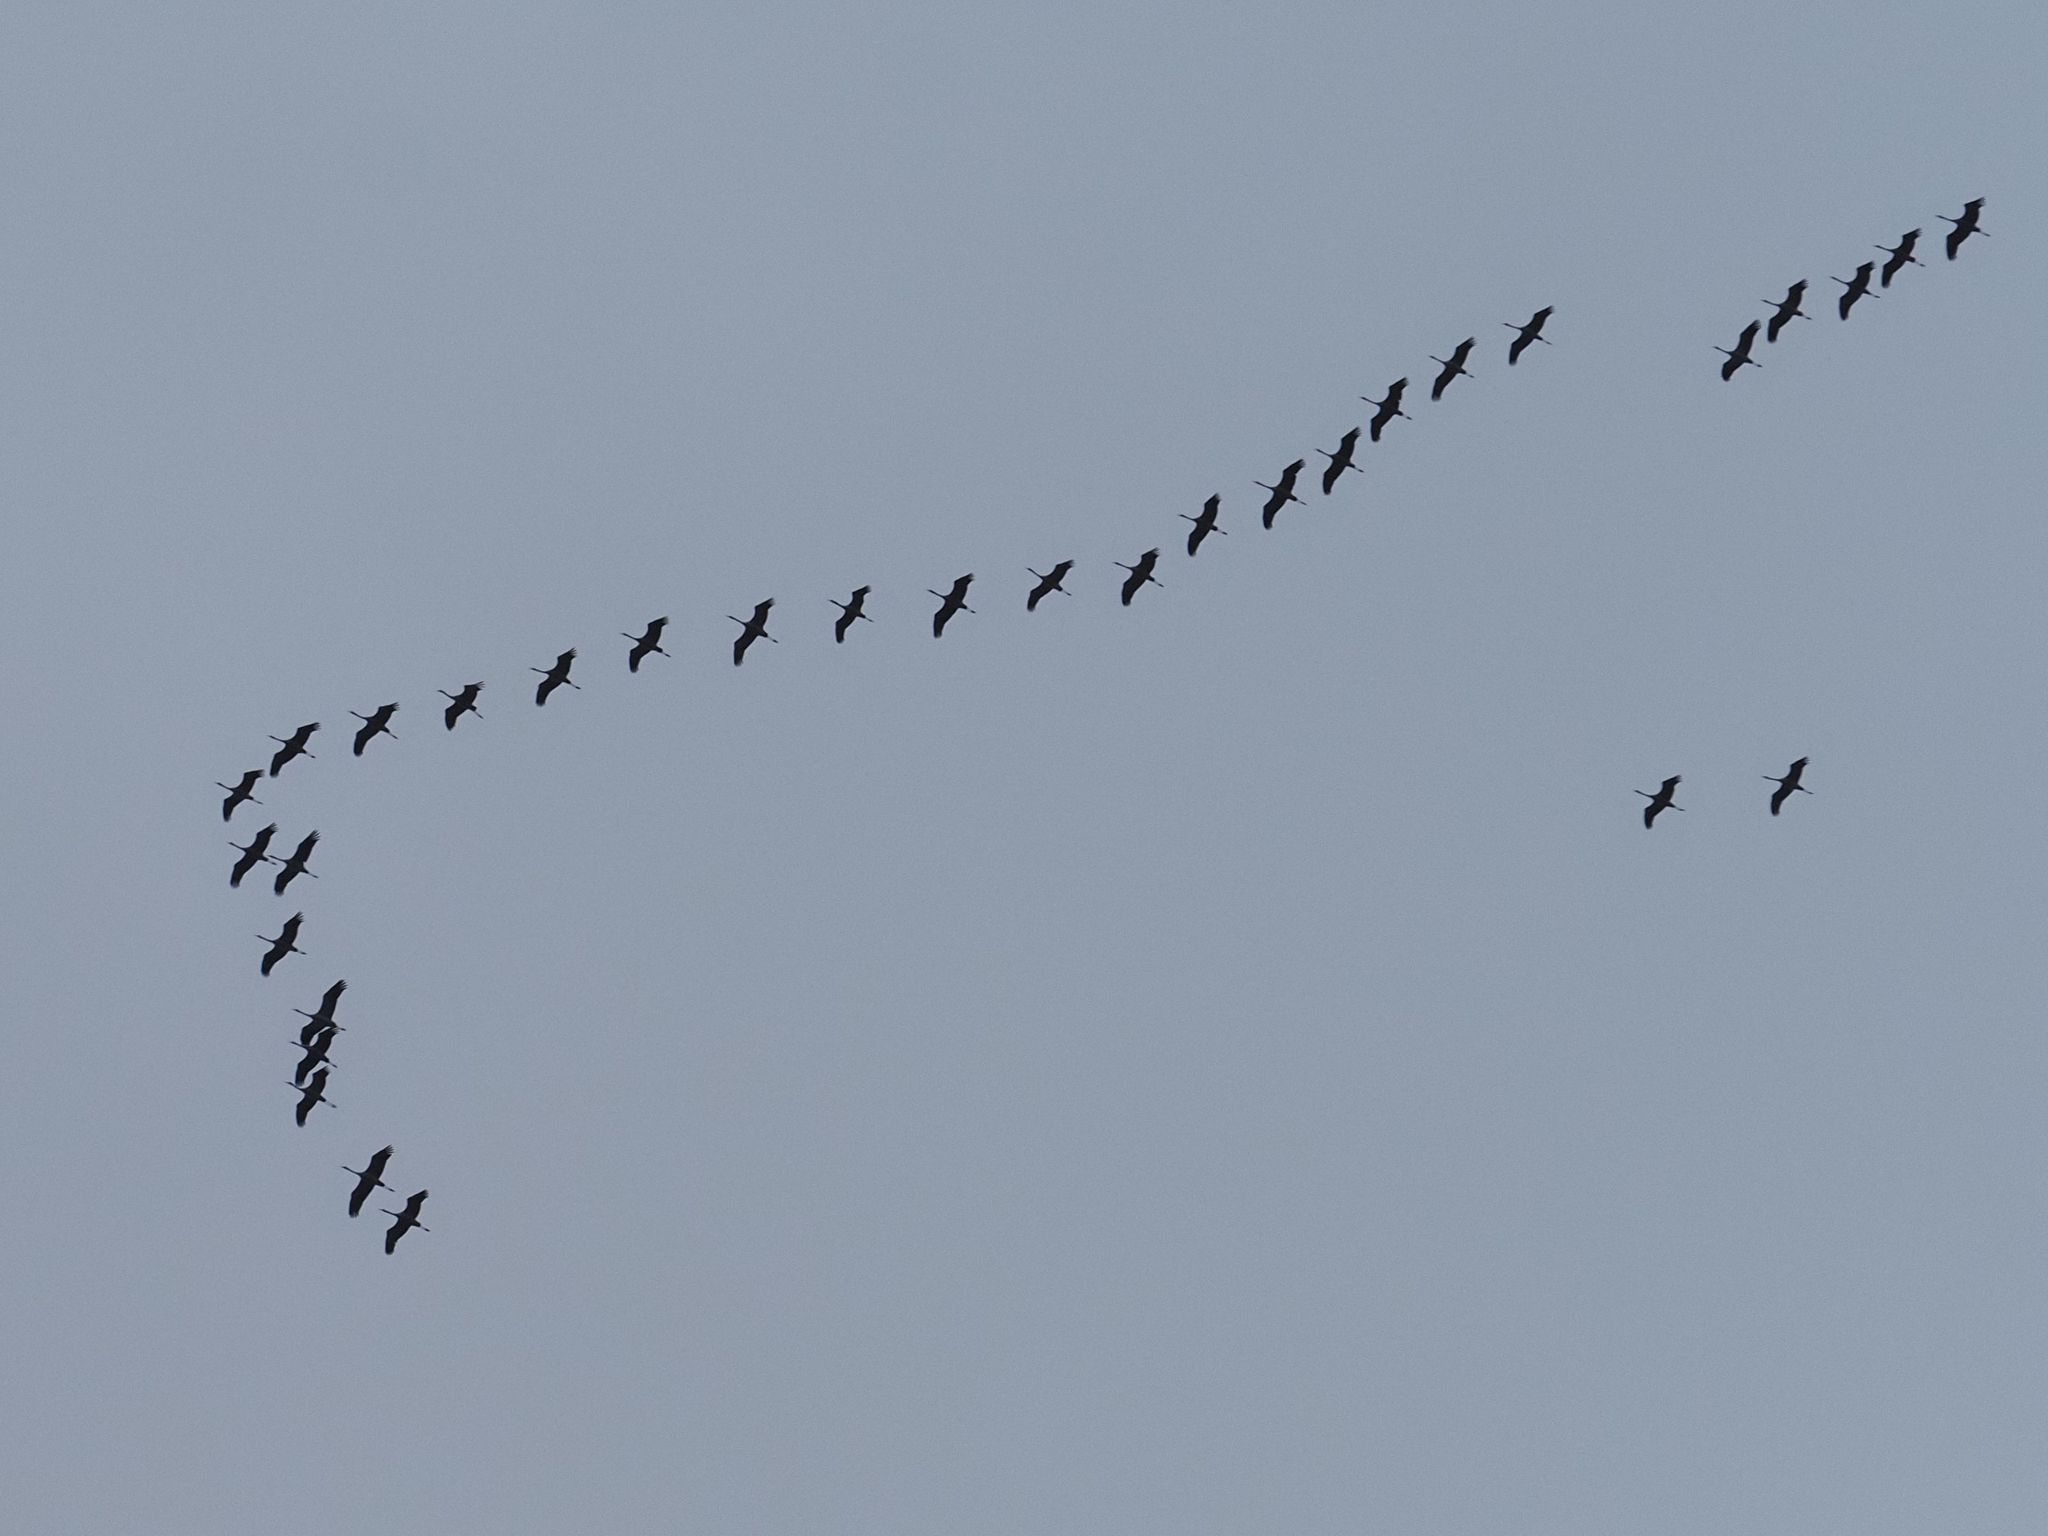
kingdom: Animalia
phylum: Chordata
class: Aves
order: Gruiformes
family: Gruidae
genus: Grus
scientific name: Grus grus
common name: Common crane
